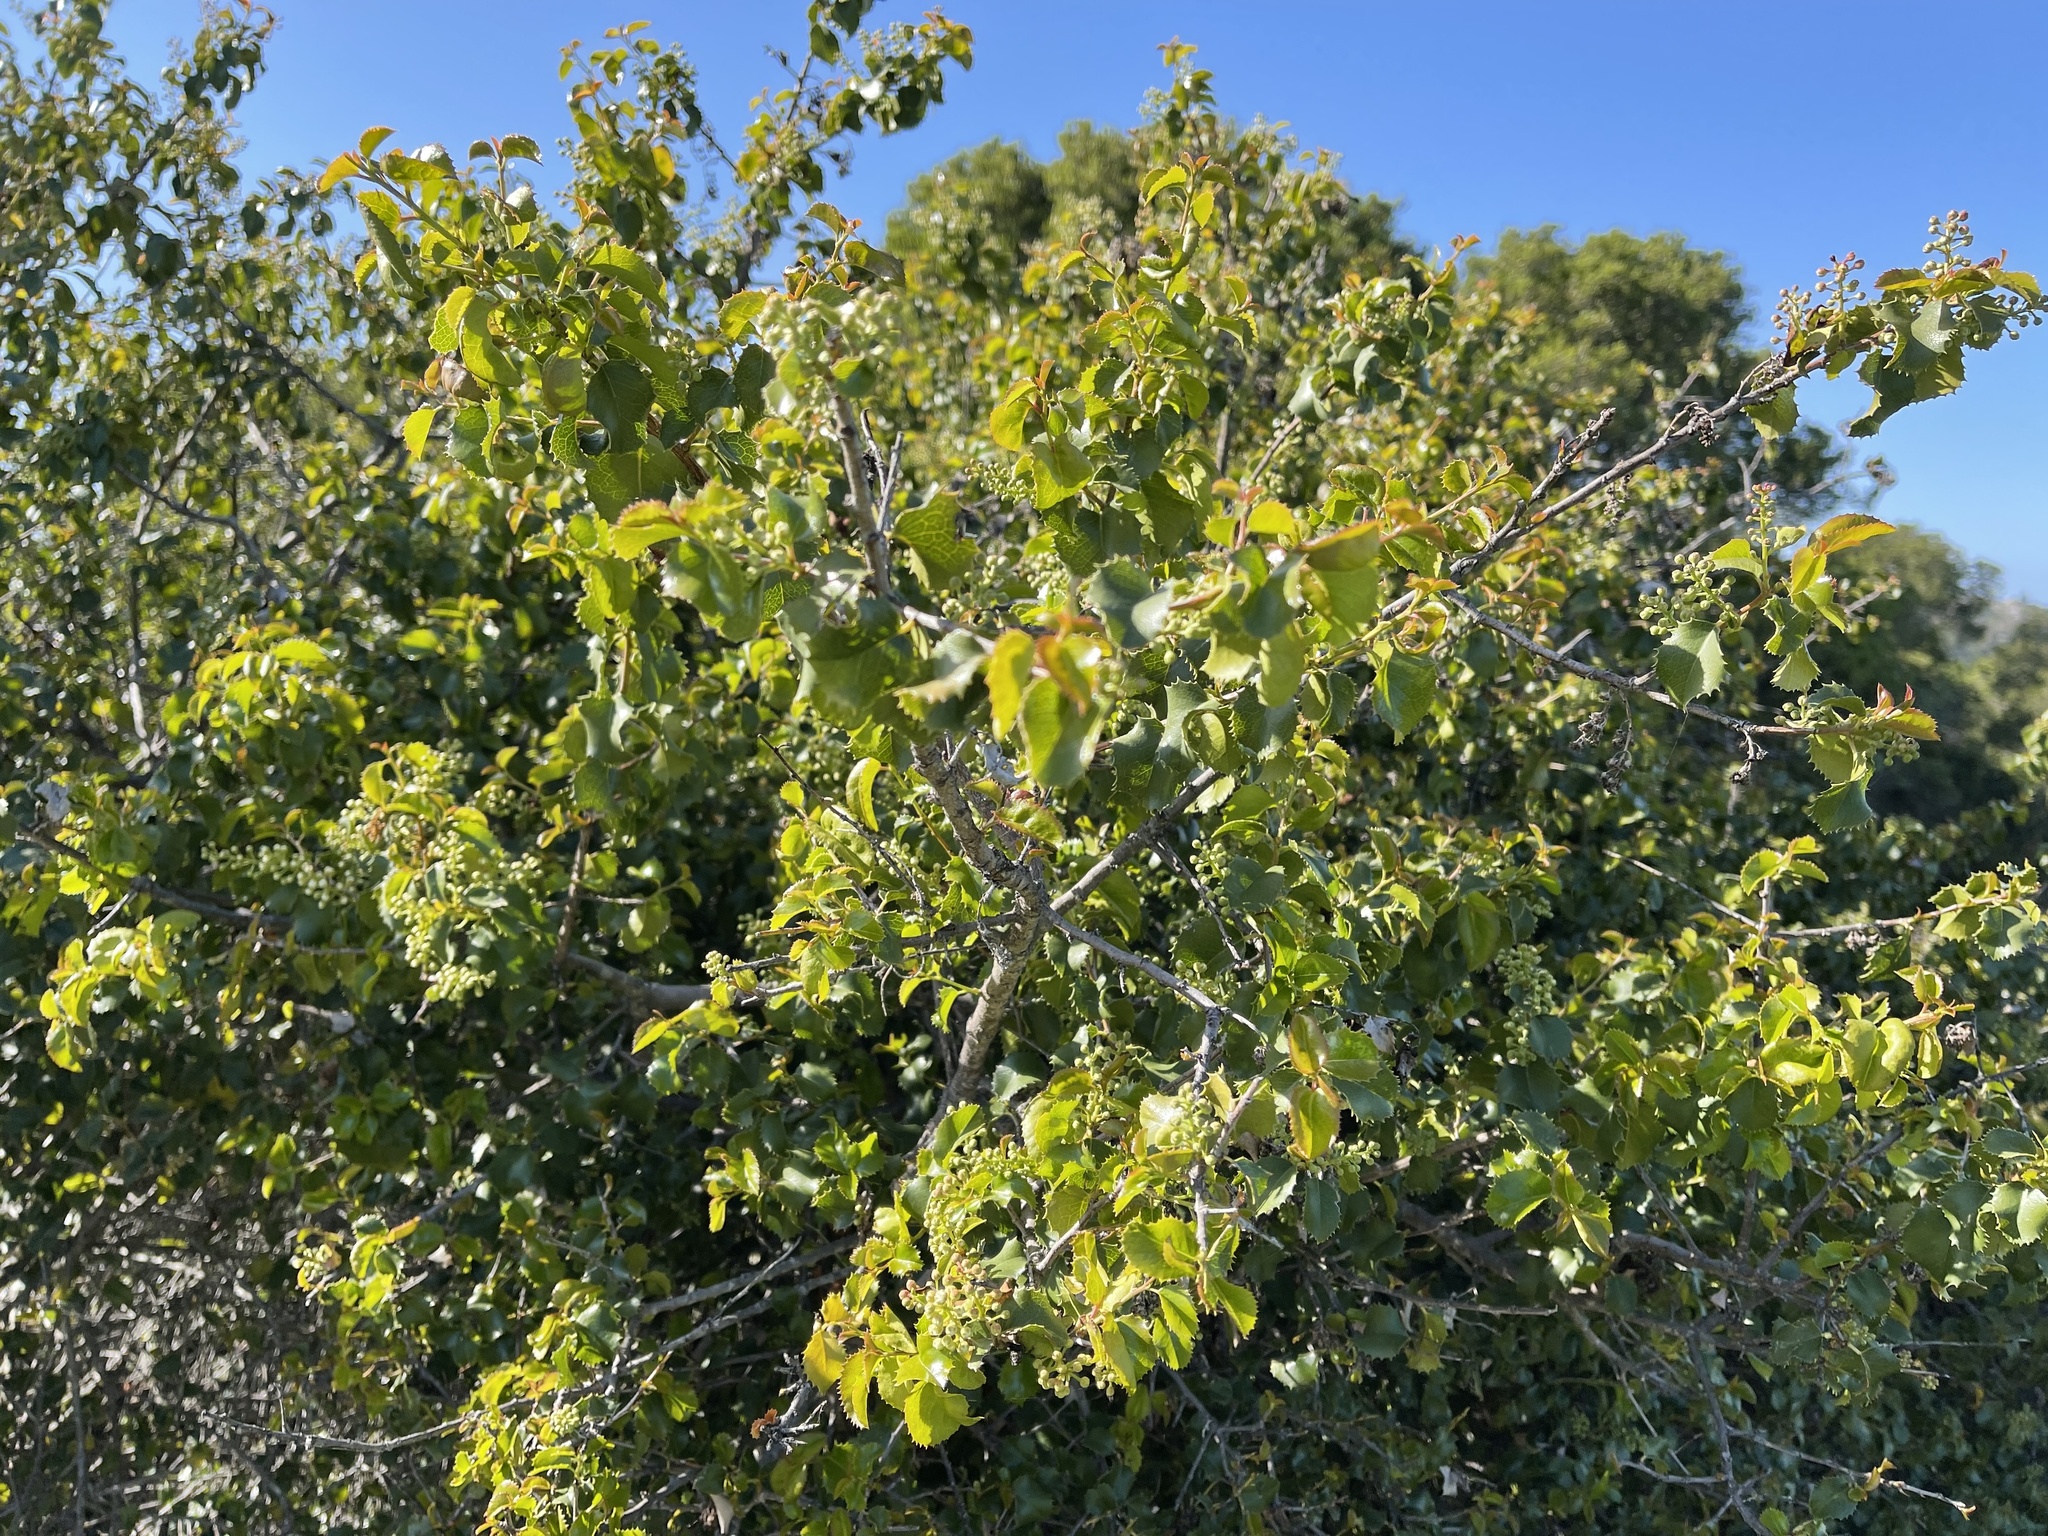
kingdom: Plantae
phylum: Tracheophyta
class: Magnoliopsida
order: Rosales
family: Rosaceae
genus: Prunus
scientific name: Prunus ilicifolia
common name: Hollyleaf cherry
